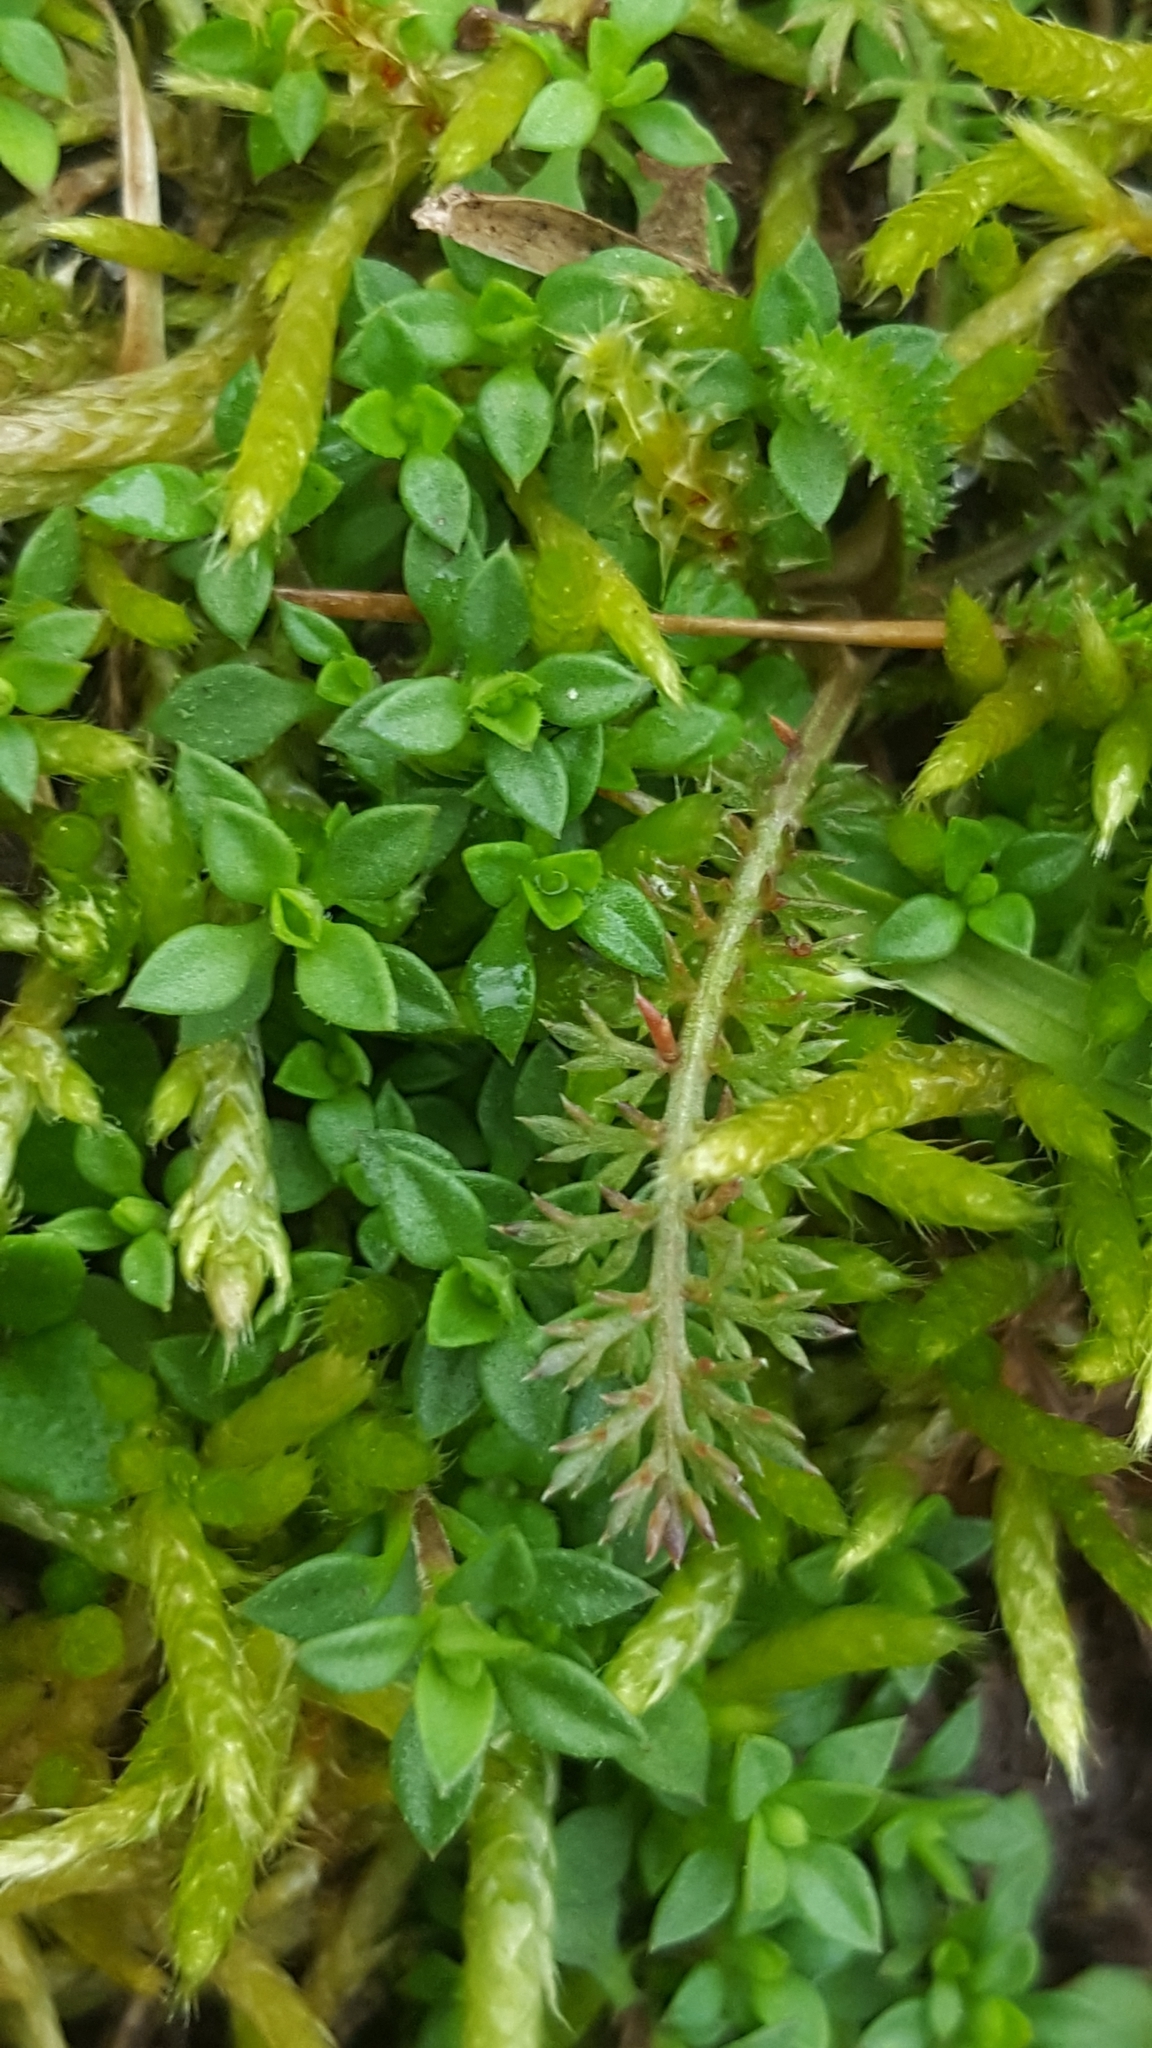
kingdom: Plantae
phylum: Tracheophyta
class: Magnoliopsida
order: Asterales
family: Asteraceae
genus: Achillea
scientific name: Achillea millefolium
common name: Yarrow
